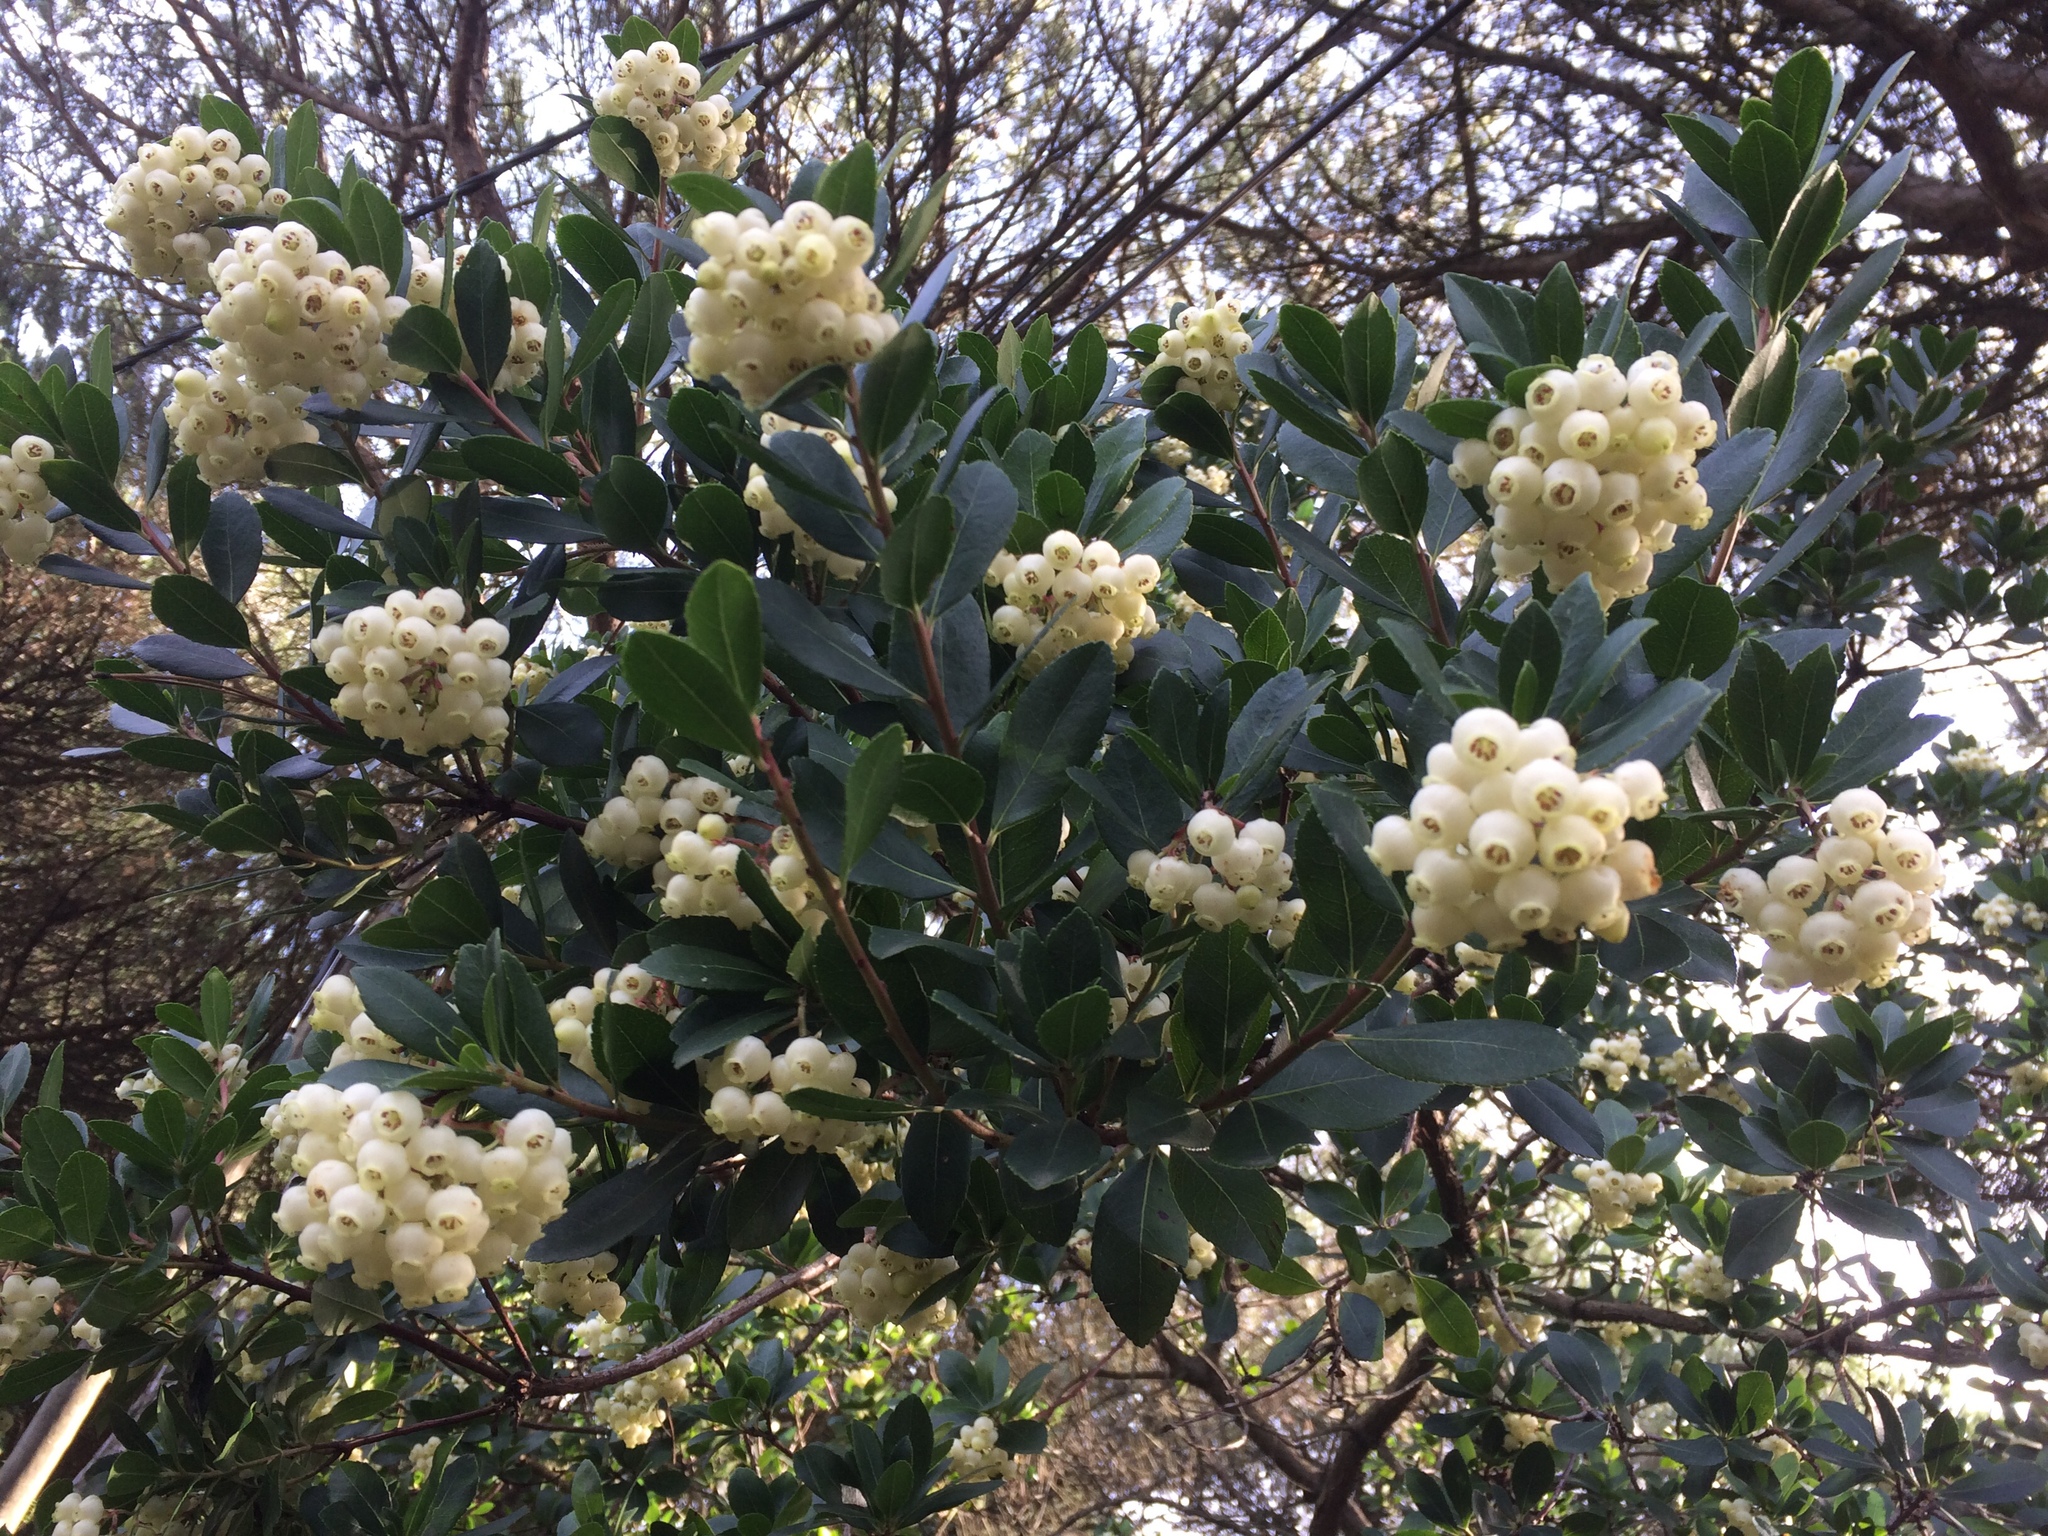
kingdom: Plantae
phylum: Tracheophyta
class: Magnoliopsida
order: Ericales
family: Ericaceae
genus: Arbutus
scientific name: Arbutus unedo
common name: Strawberry-tree
